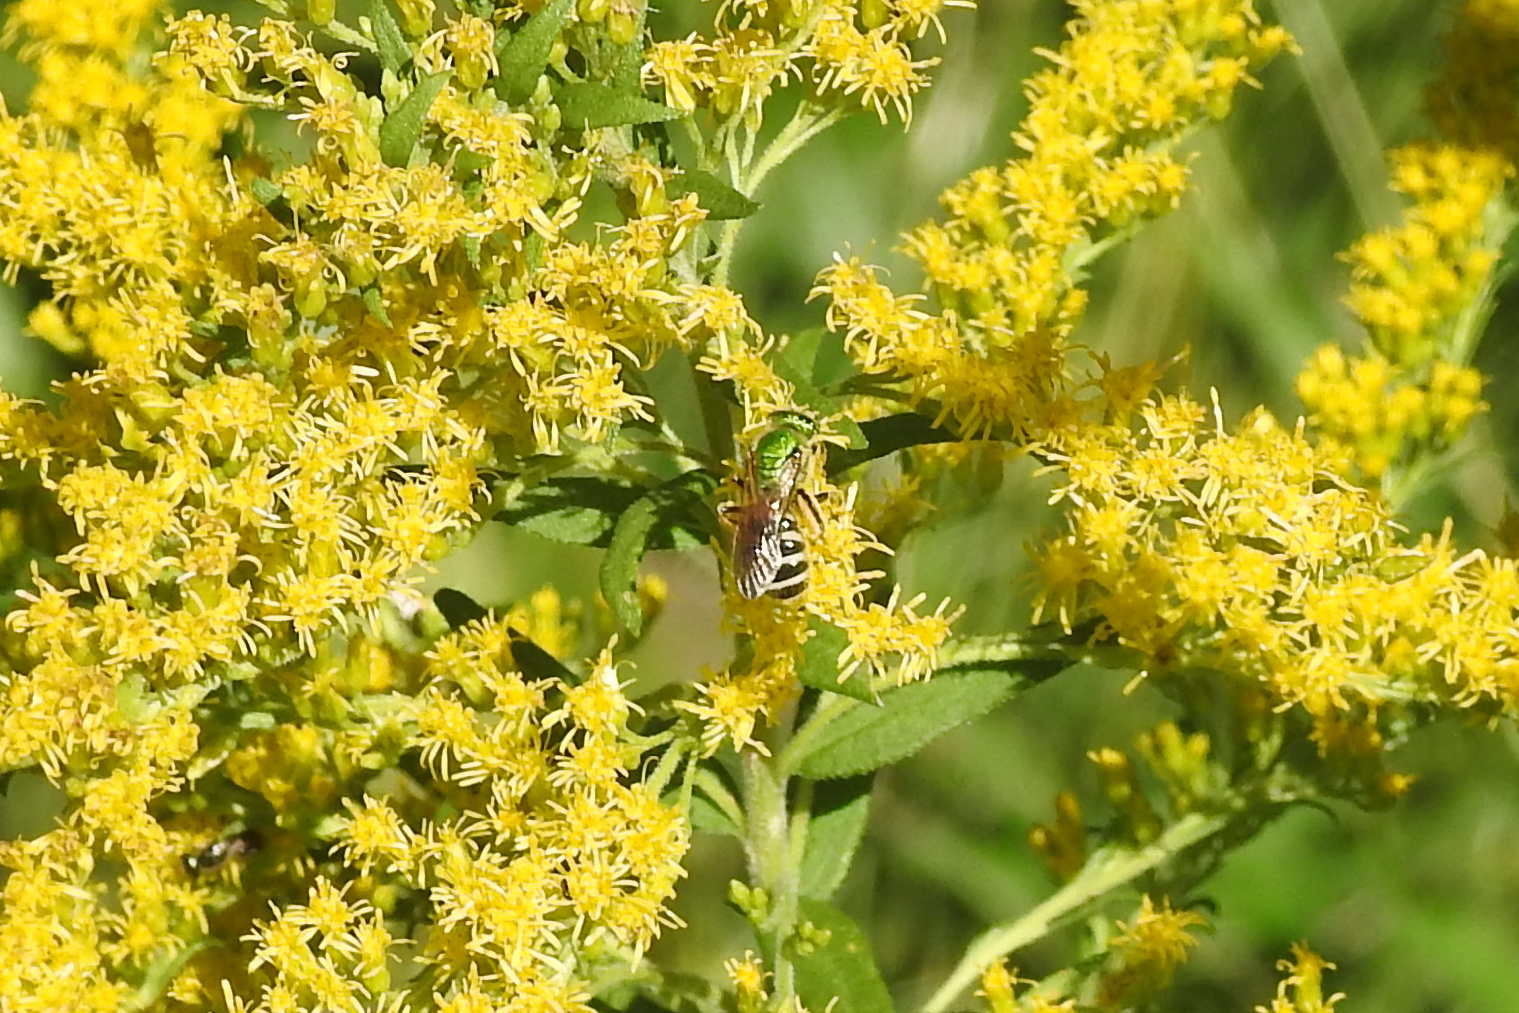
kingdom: Animalia
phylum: Arthropoda
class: Insecta
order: Hymenoptera
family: Halictidae
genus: Agapostemon
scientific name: Agapostemon virescens
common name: Bicolored striped sweat bee
